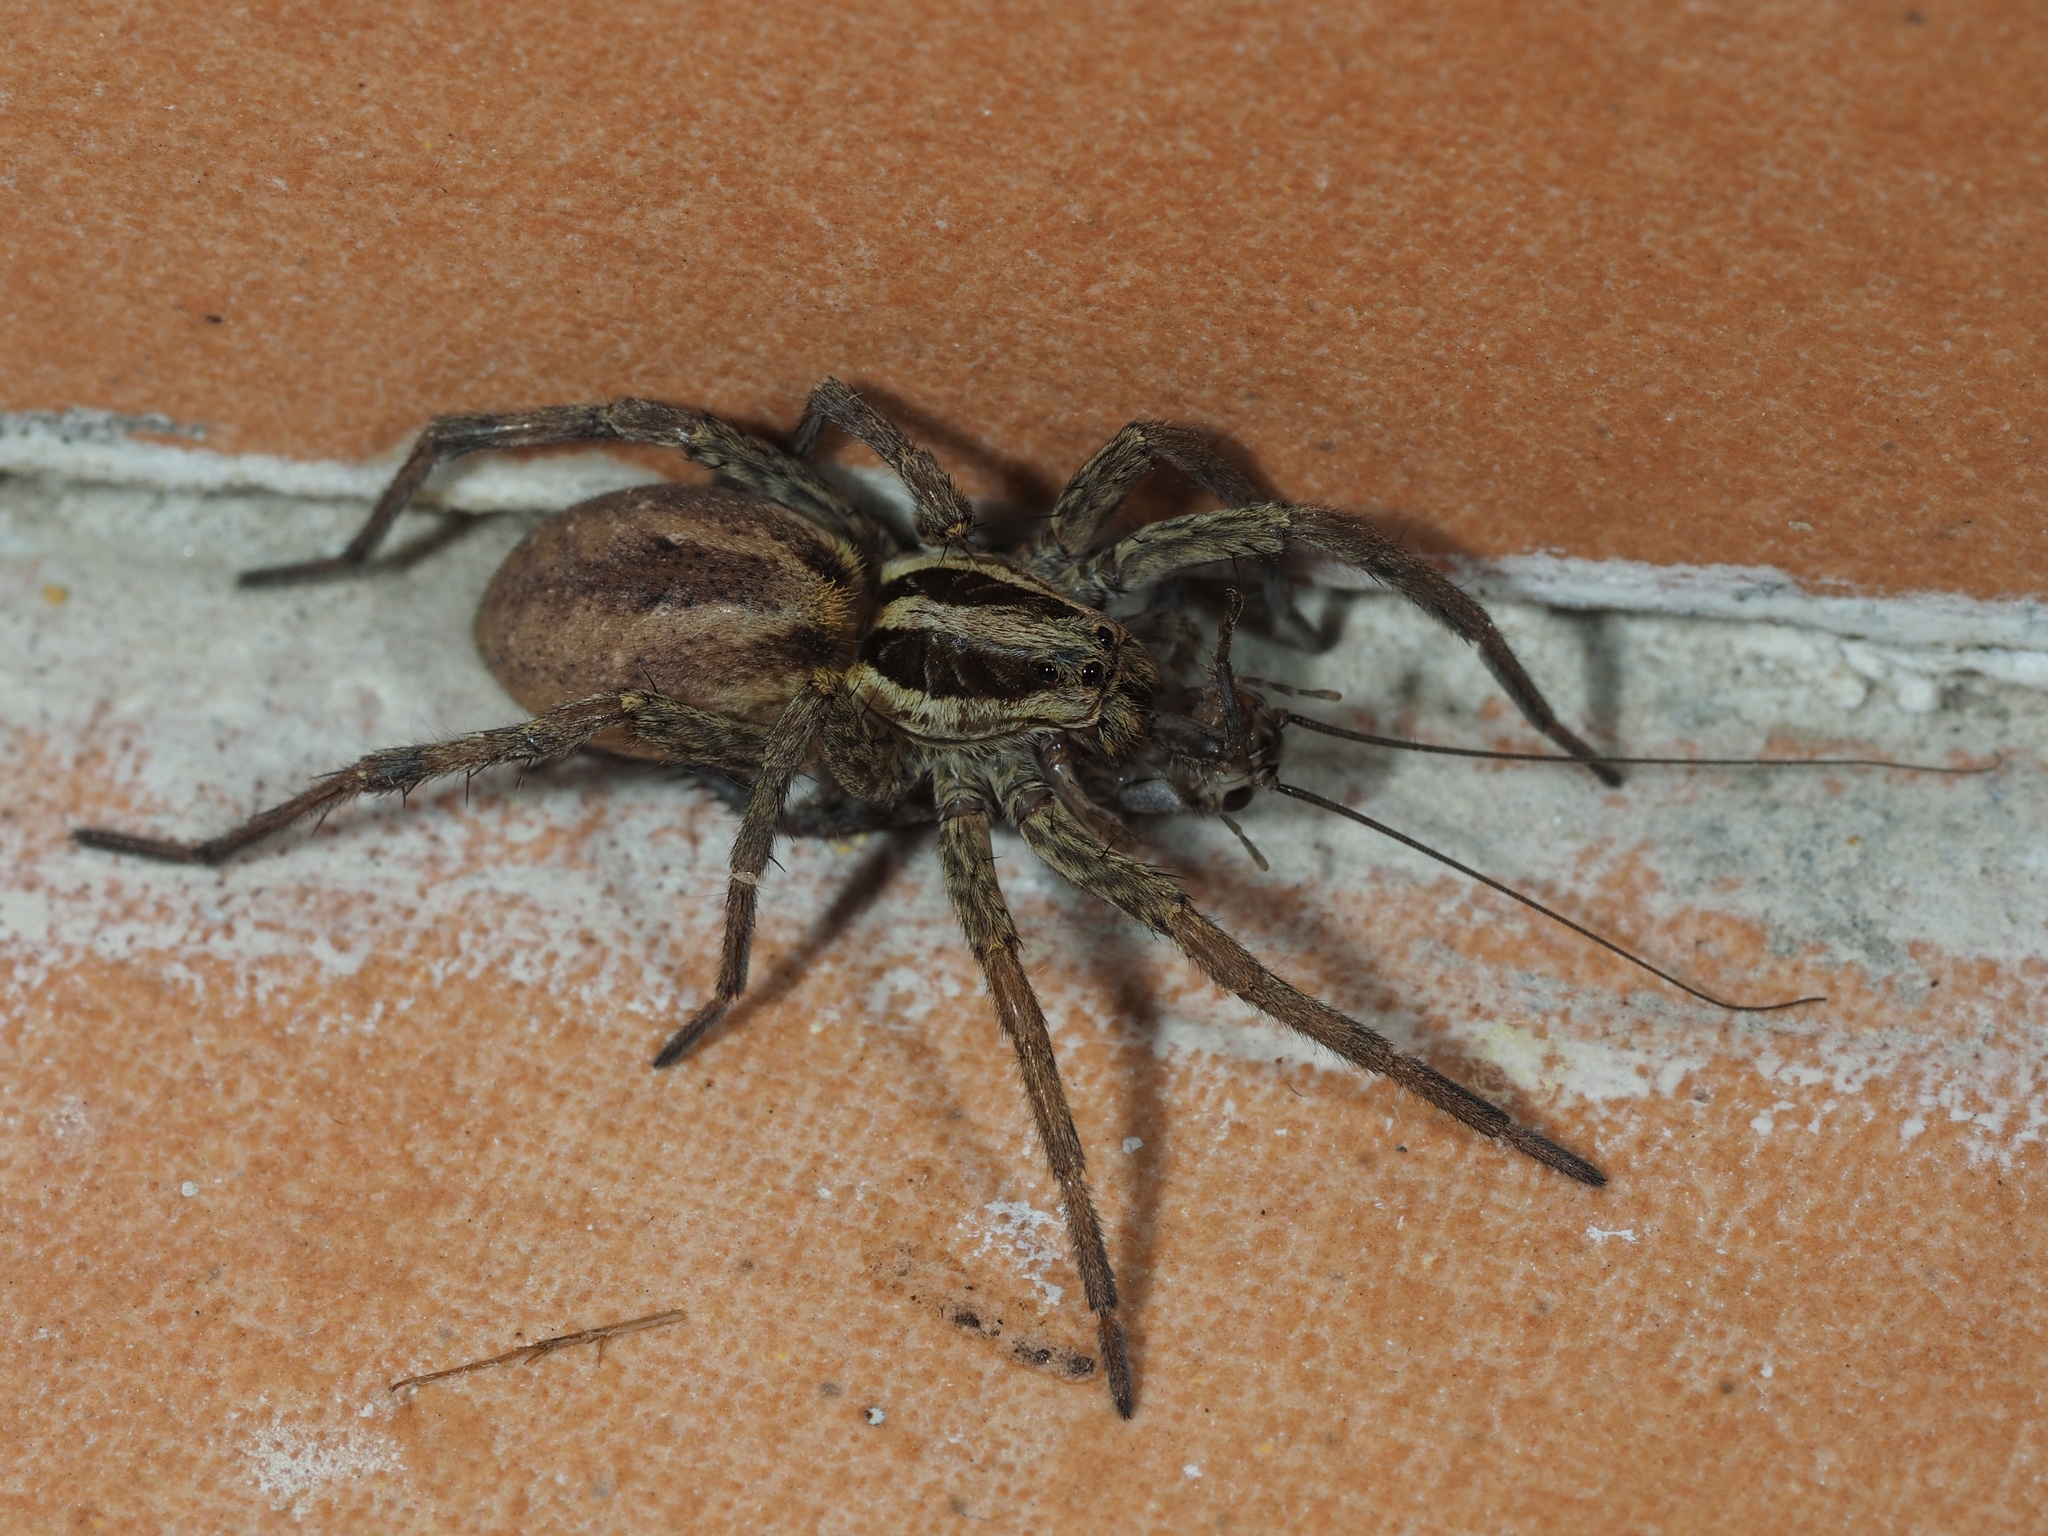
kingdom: Animalia
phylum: Arthropoda
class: Arachnida
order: Araneae
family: Lycosidae
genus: Hogna
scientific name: Hogna radiata
